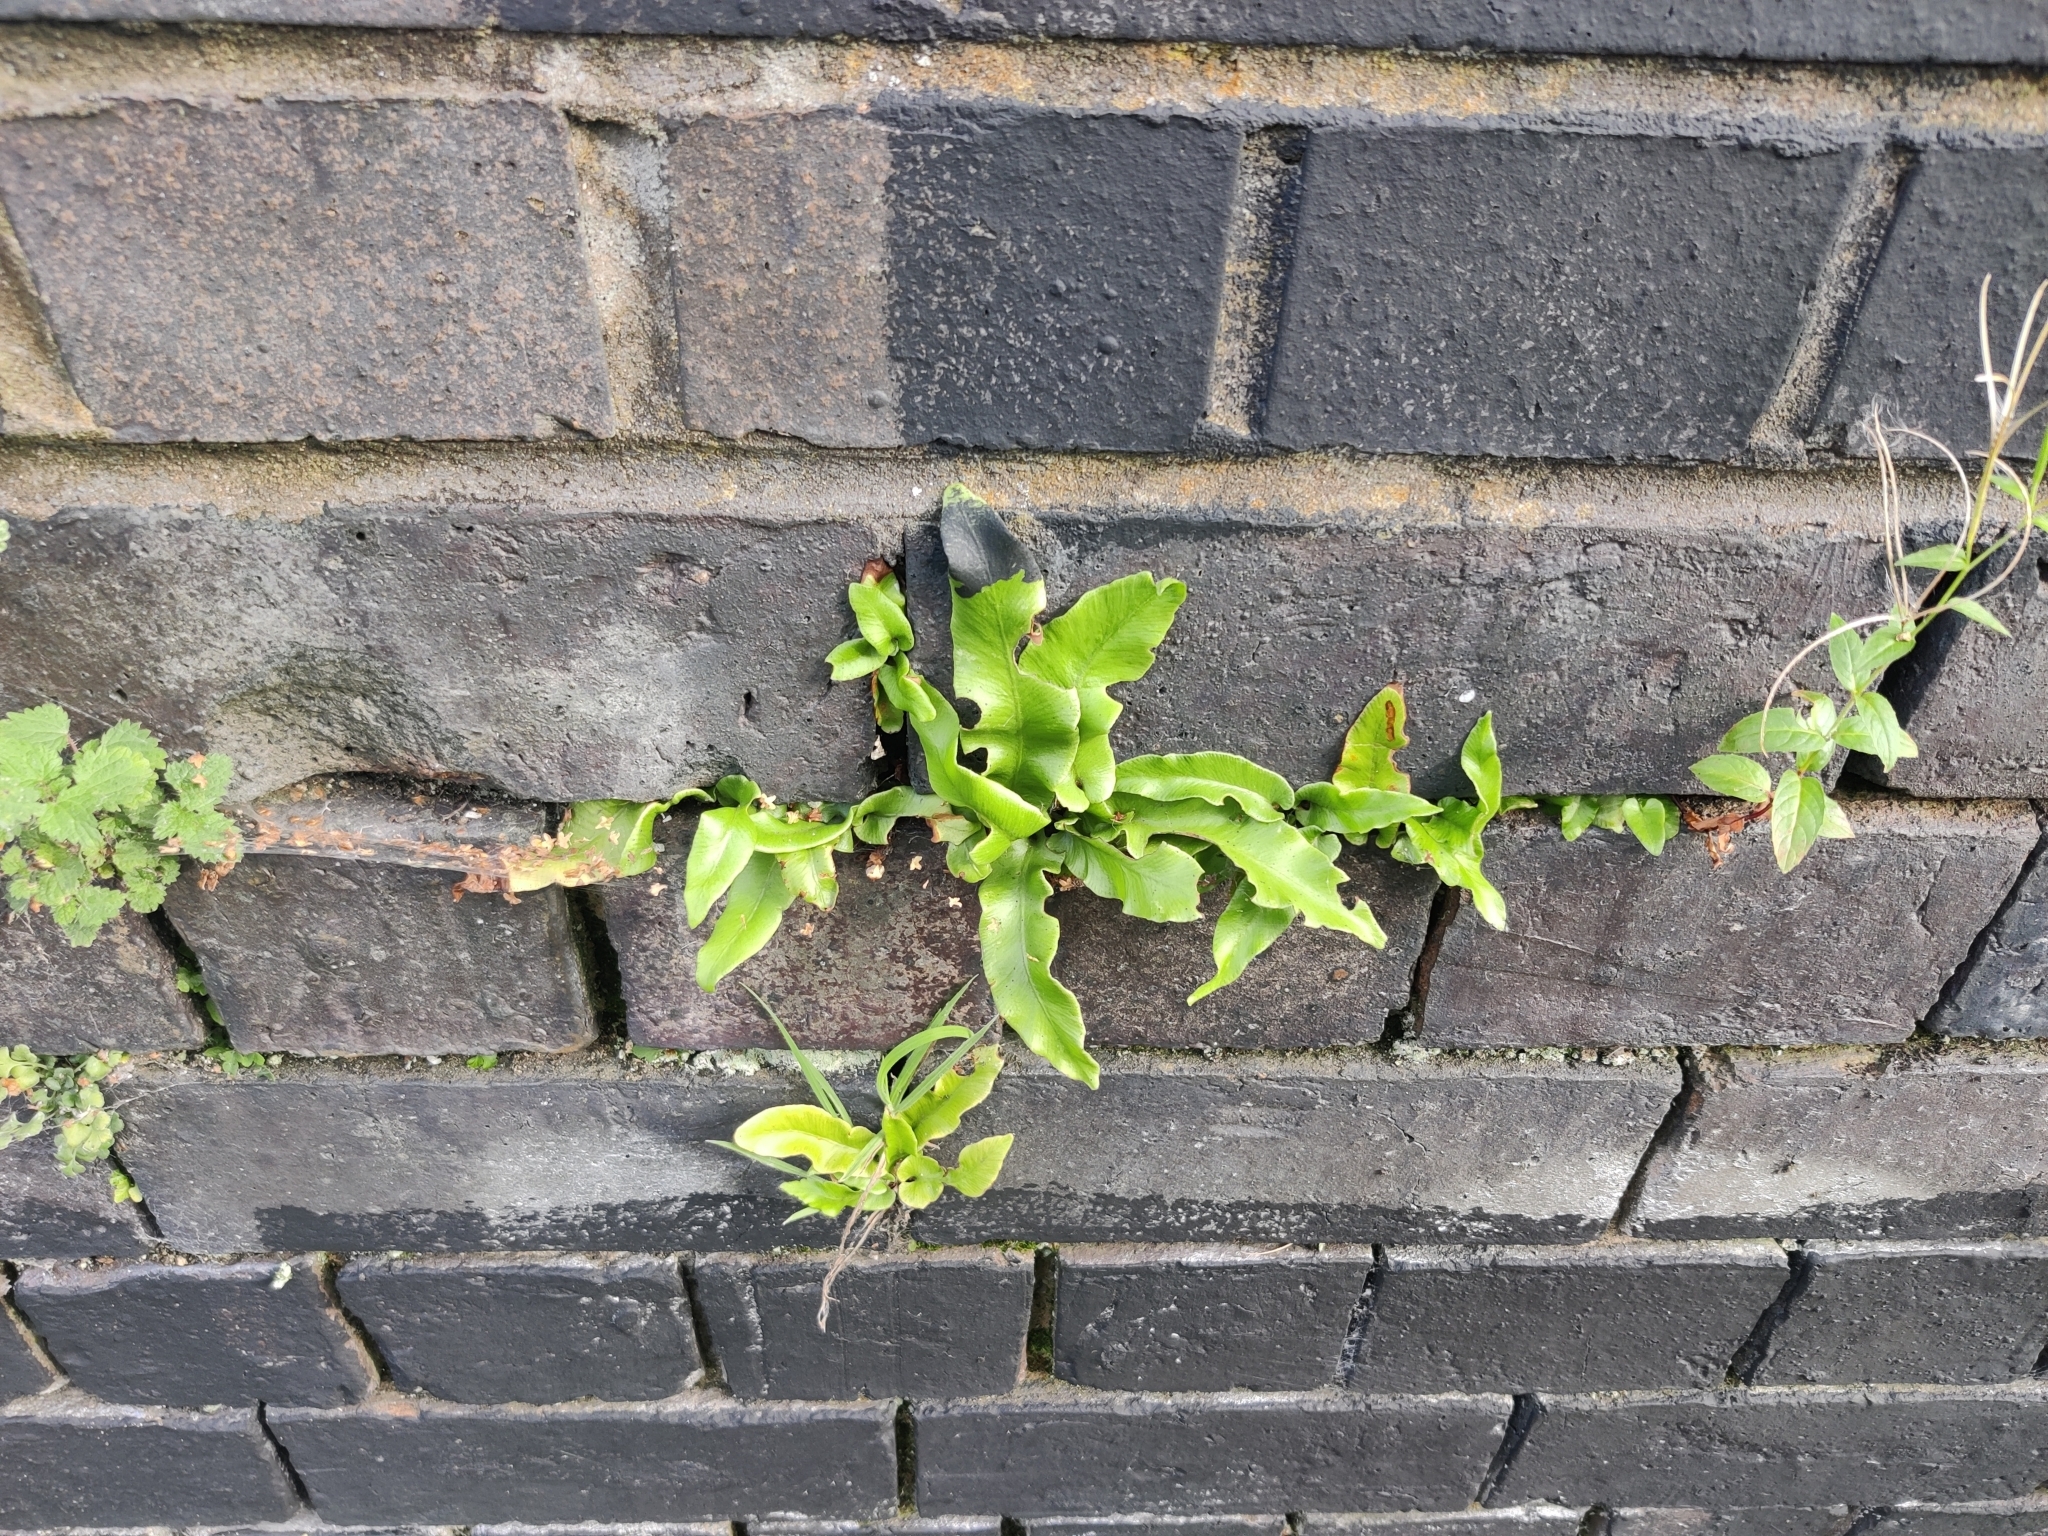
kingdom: Plantae
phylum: Tracheophyta
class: Polypodiopsida
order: Polypodiales
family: Aspleniaceae
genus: Asplenium
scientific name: Asplenium scolopendrium
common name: Hart's-tongue fern
